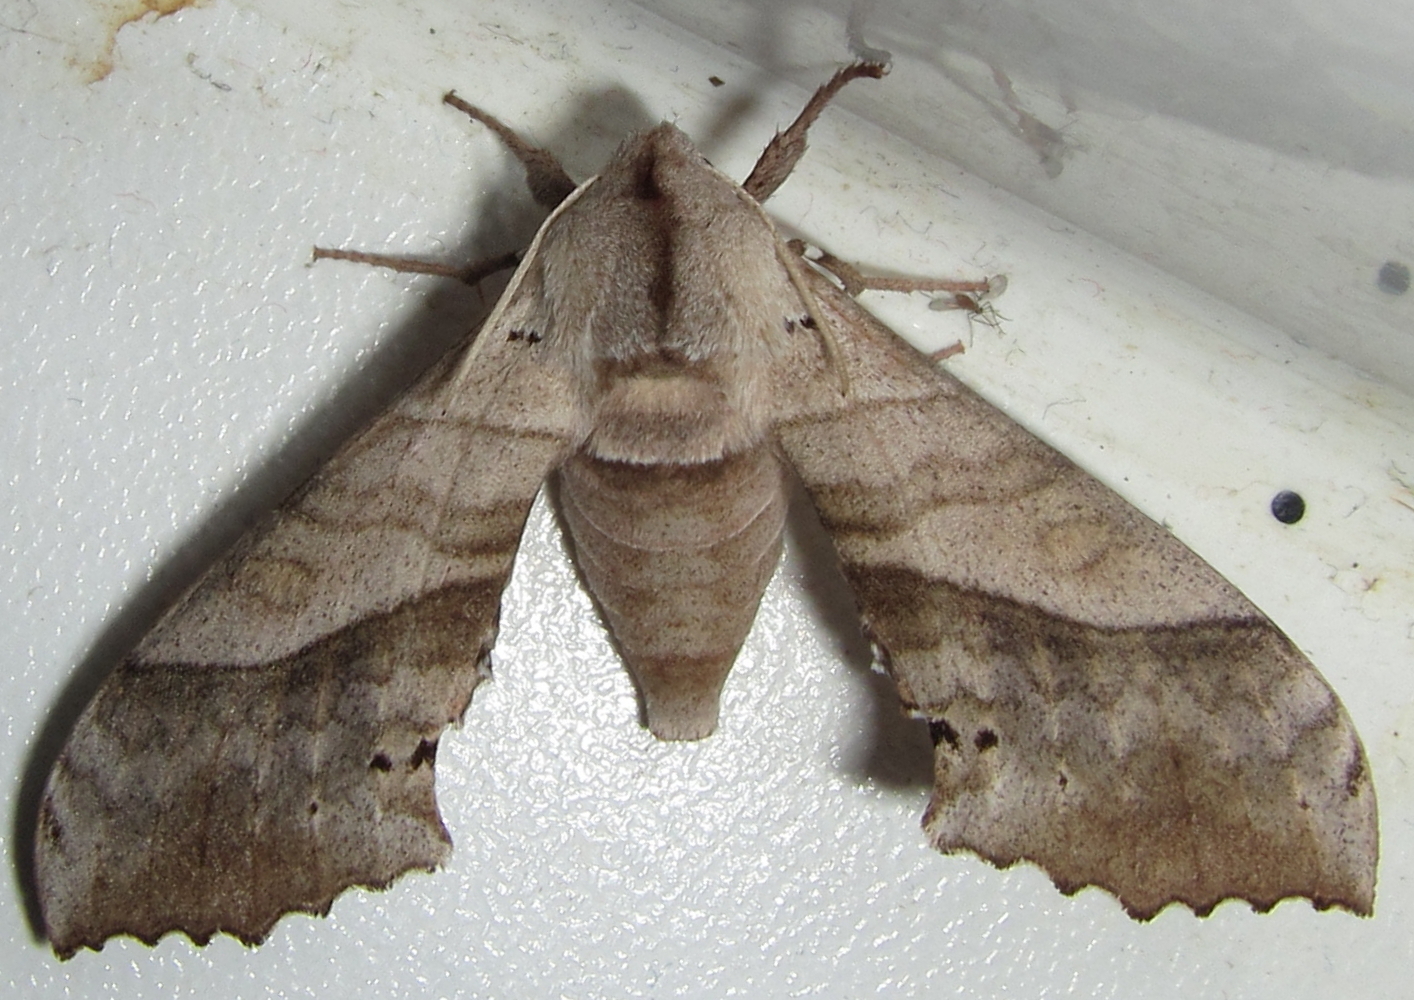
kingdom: Animalia
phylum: Arthropoda
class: Insecta
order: Lepidoptera
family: Sphingidae
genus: Rufoclanis
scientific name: Rufoclanis numosae
